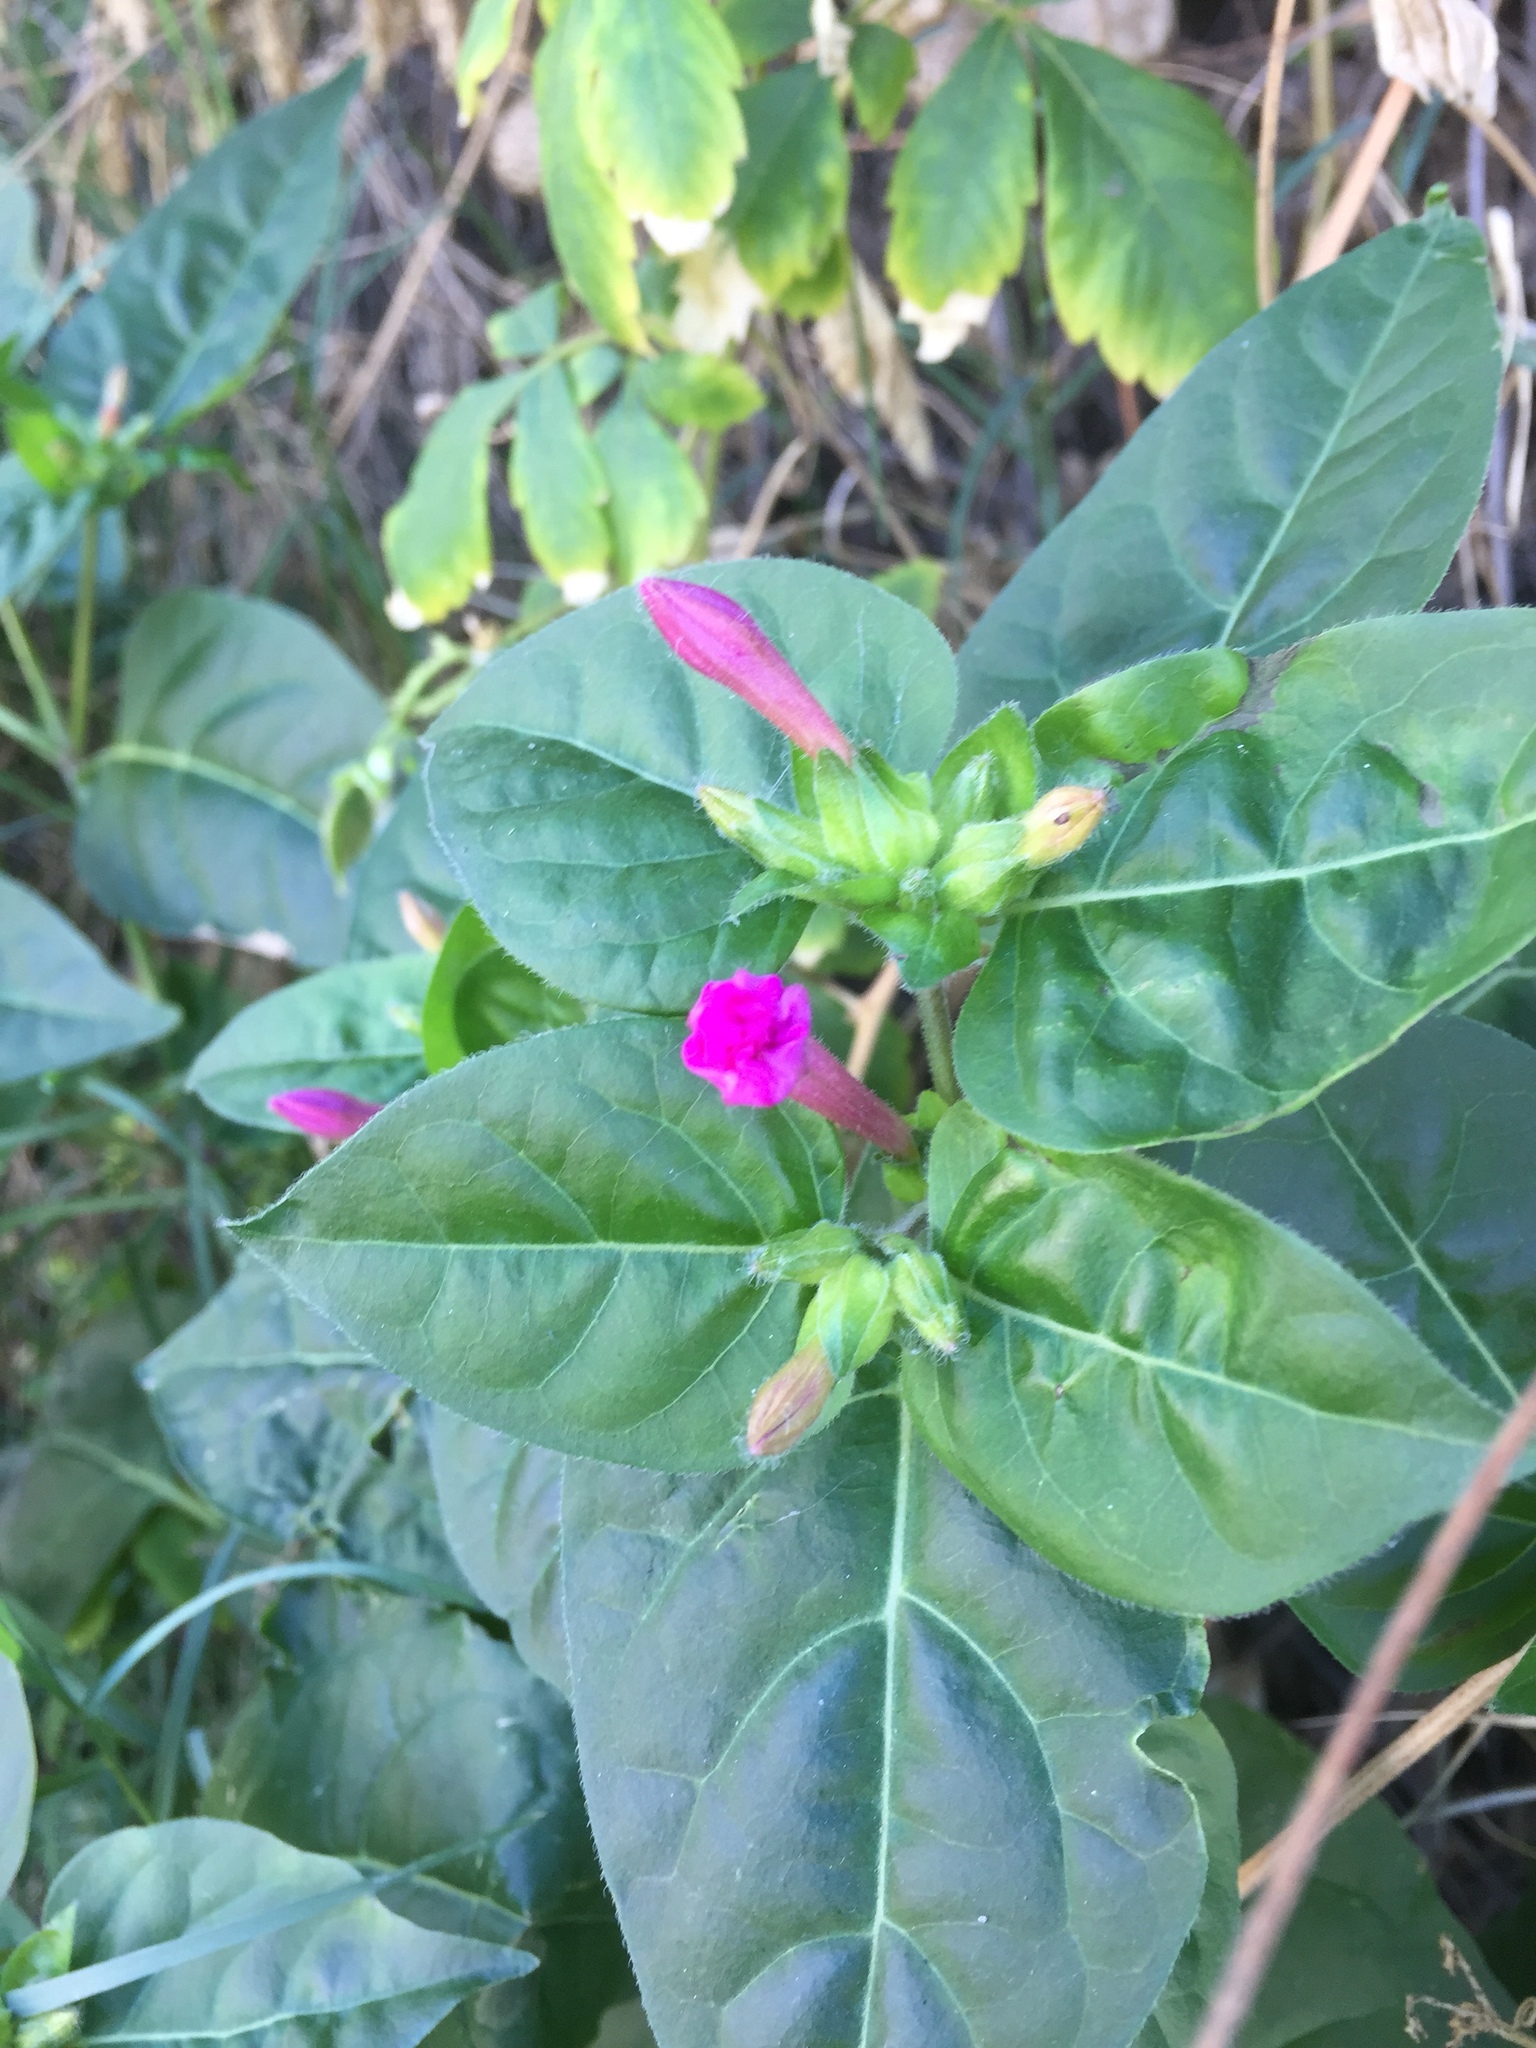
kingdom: Plantae
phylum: Tracheophyta
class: Magnoliopsida
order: Caryophyllales
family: Nyctaginaceae
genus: Mirabilis
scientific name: Mirabilis jalapa
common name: Marvel-of-peru
